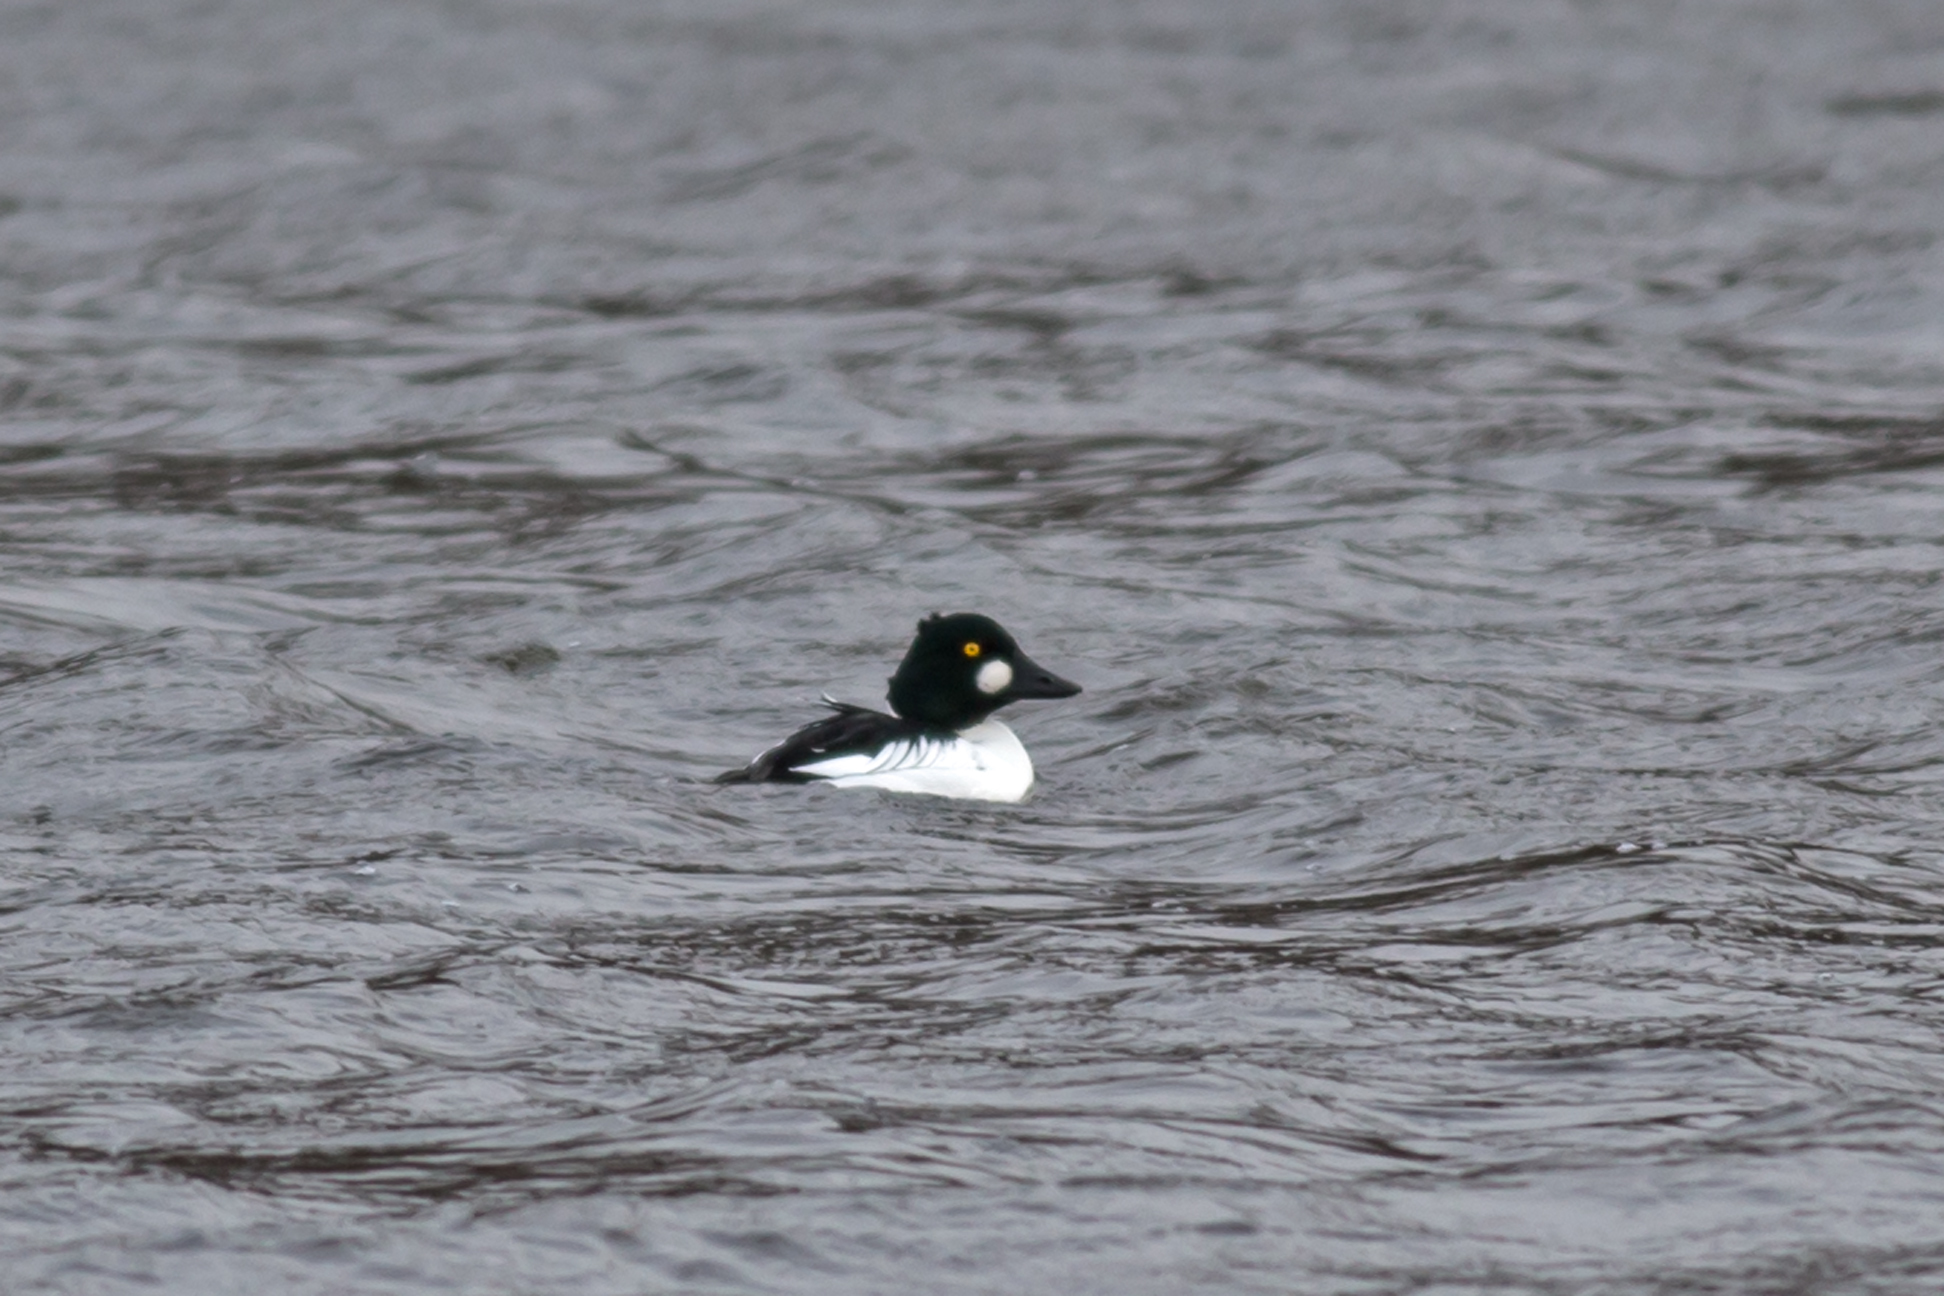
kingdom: Animalia
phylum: Chordata
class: Aves
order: Anseriformes
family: Anatidae
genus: Bucephala
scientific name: Bucephala clangula
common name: Common goldeneye
